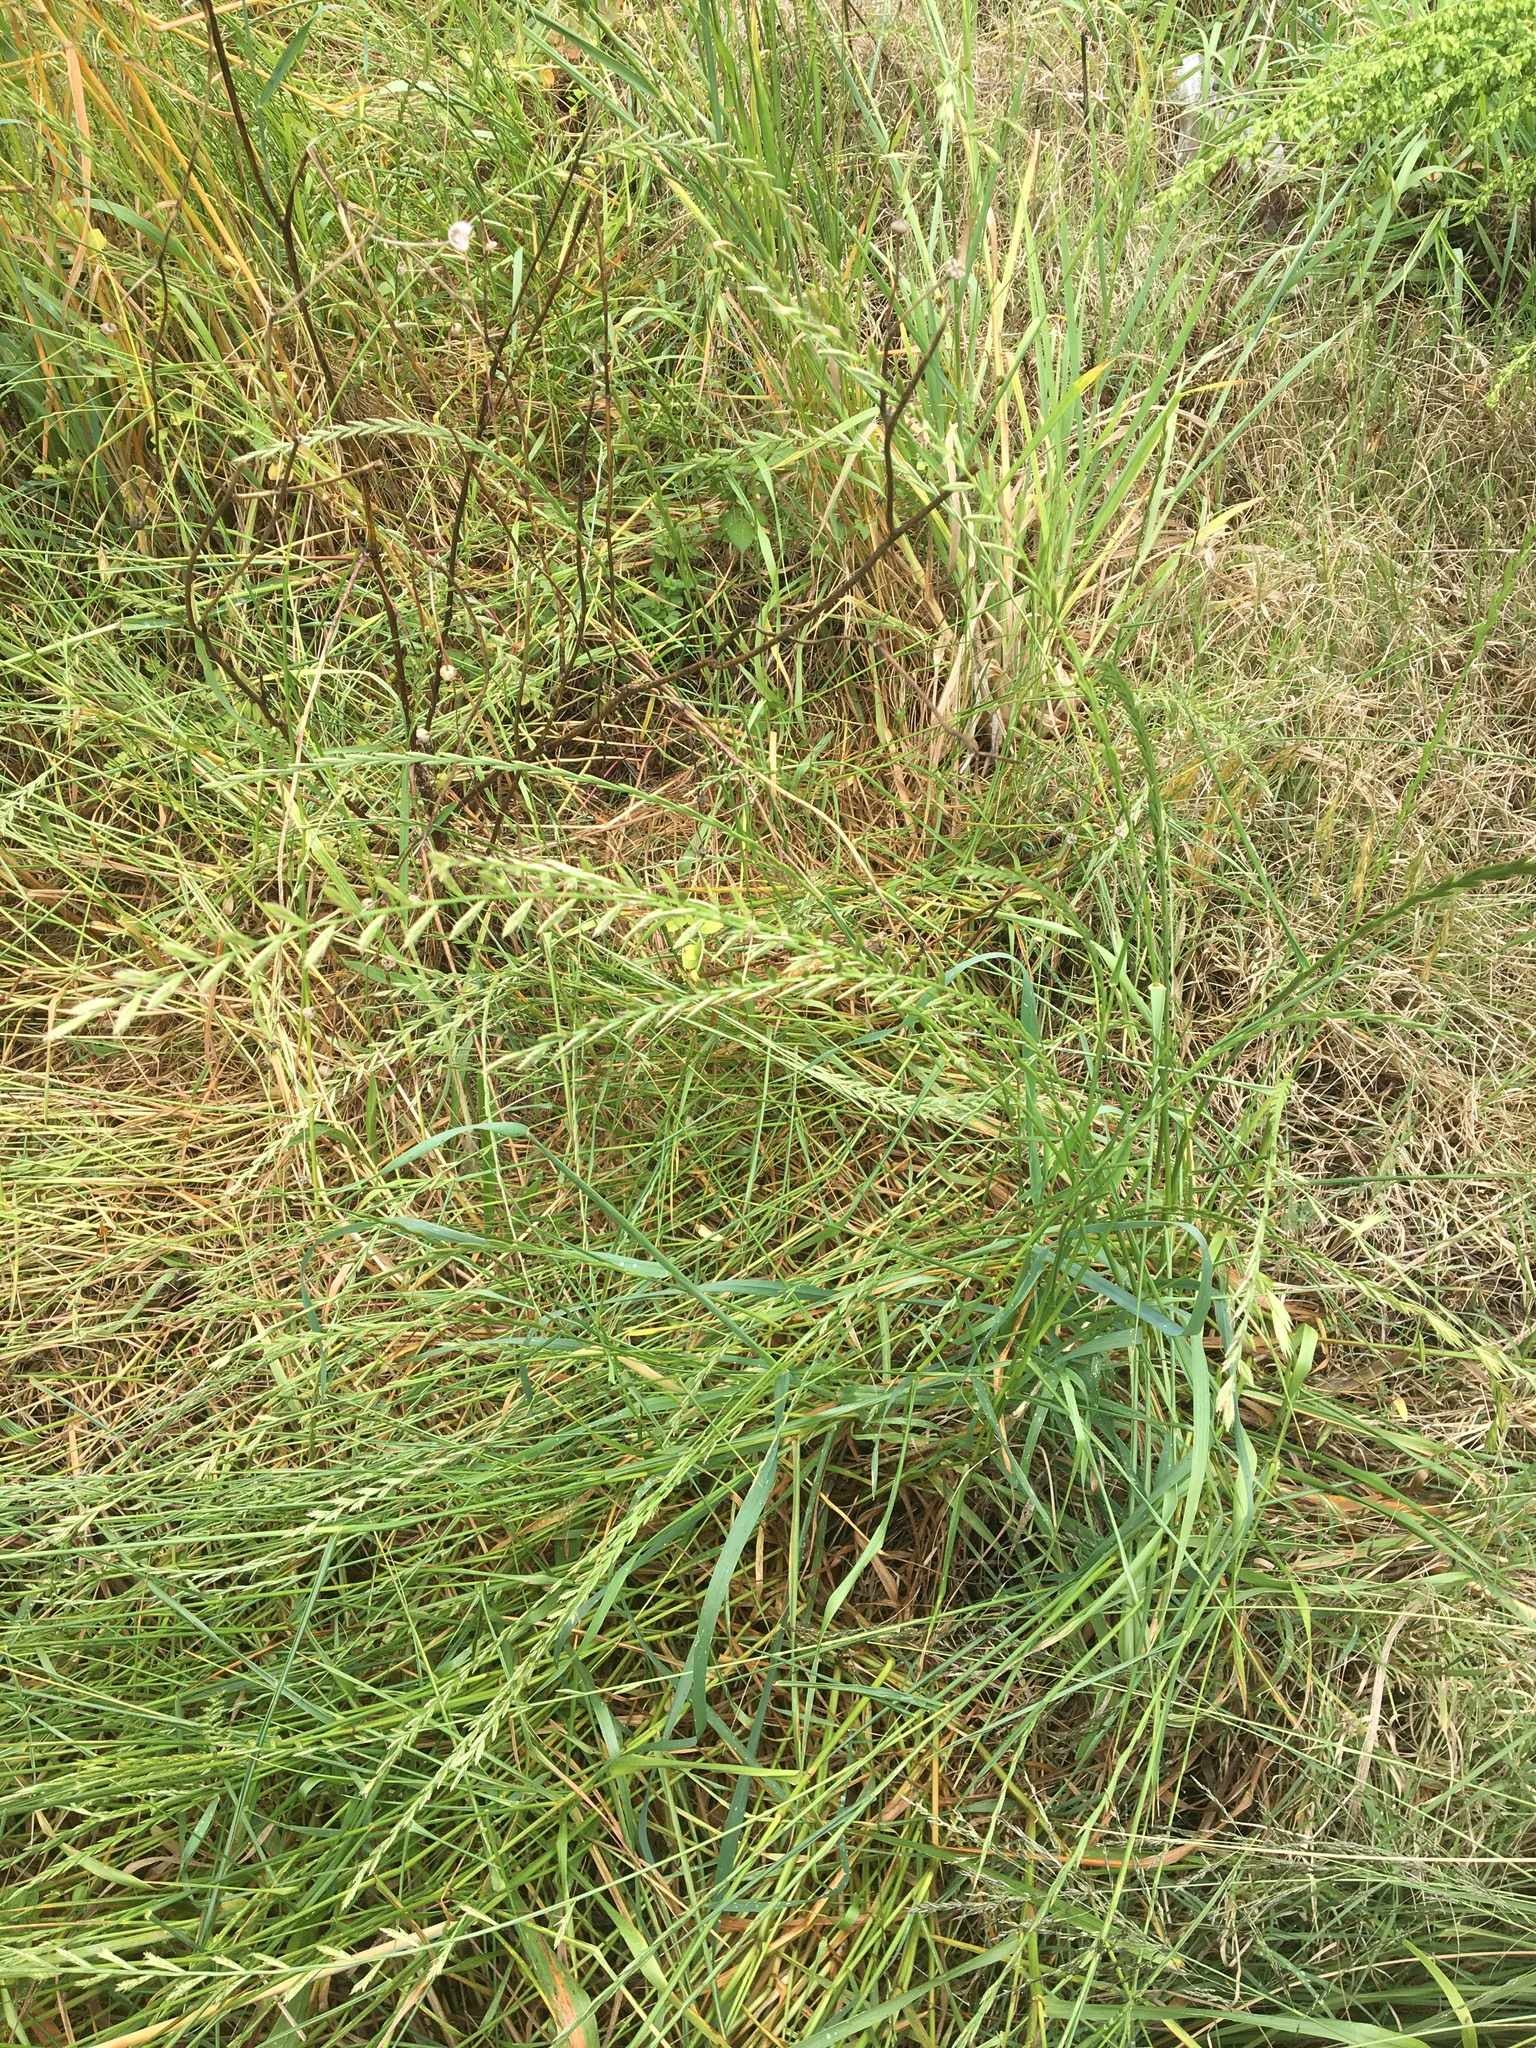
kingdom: Plantae
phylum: Tracheophyta
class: Liliopsida
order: Poales
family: Poaceae
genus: Lolium
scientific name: Lolium multiflorum
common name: Annual ryegrass
